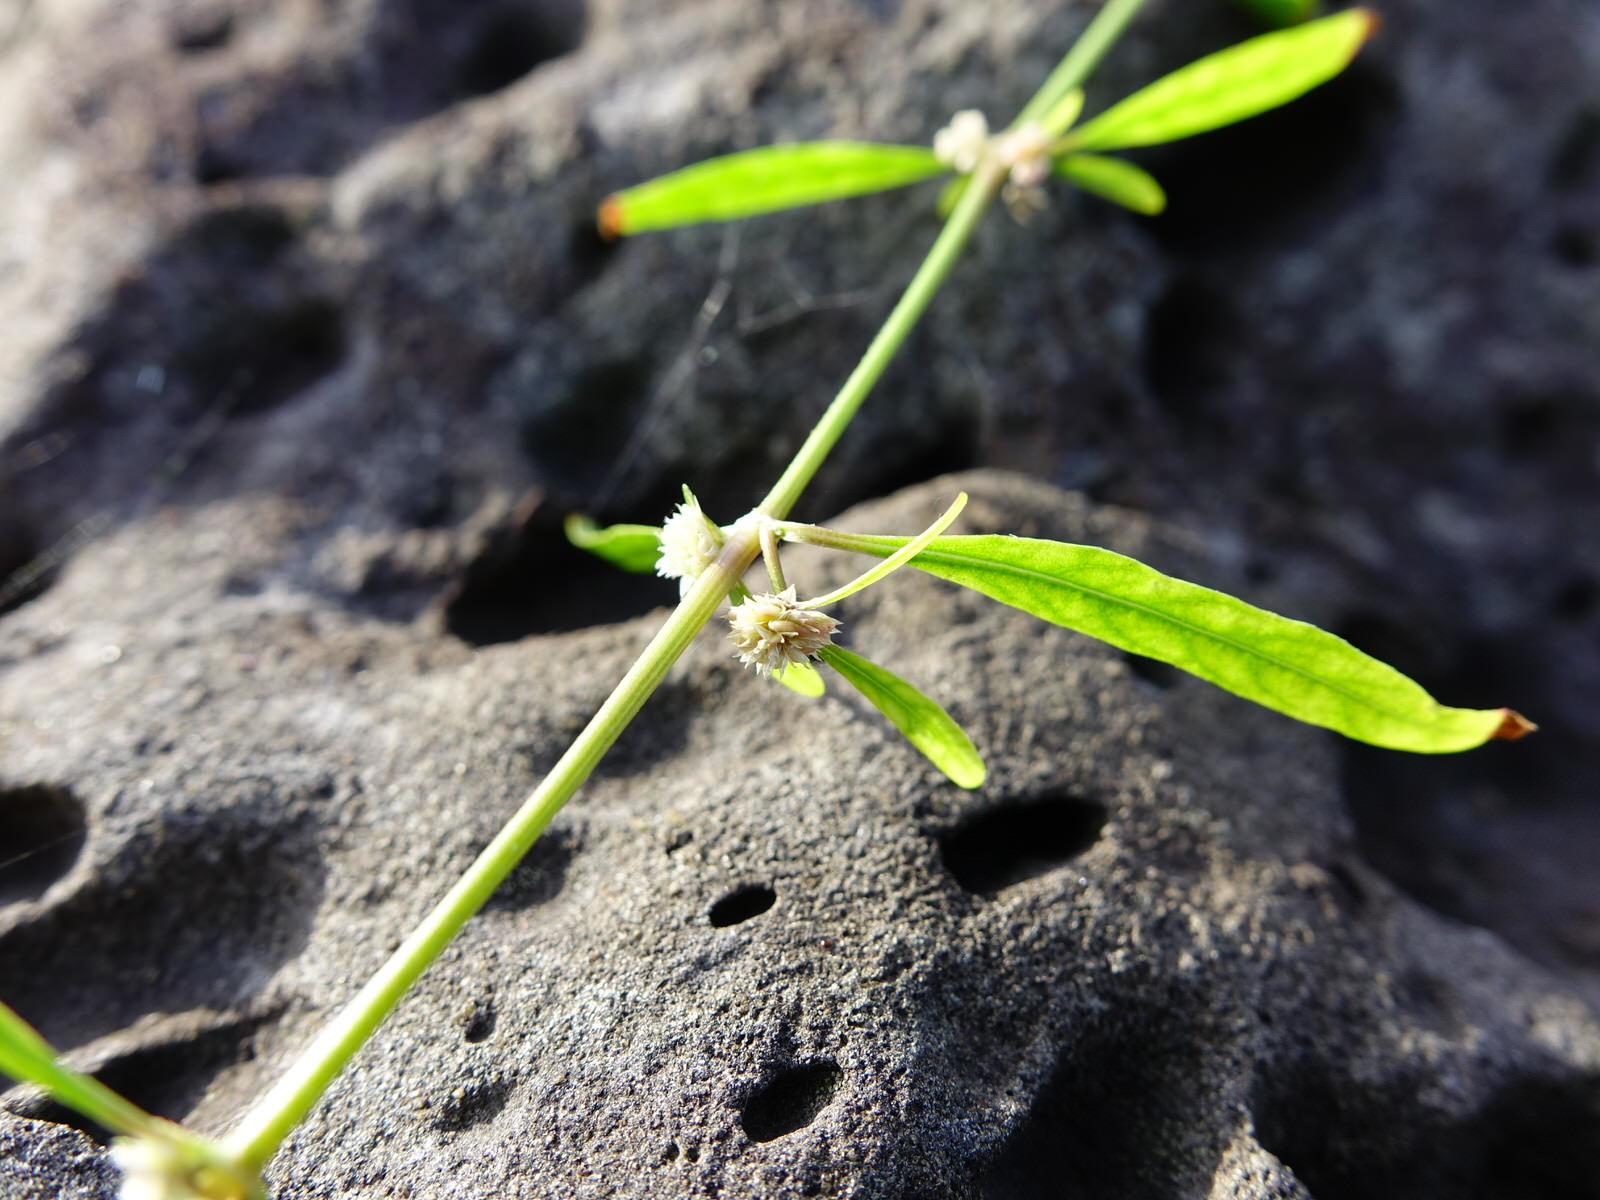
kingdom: Plantae
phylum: Tracheophyta
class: Magnoliopsida
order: Caryophyllales
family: Amaranthaceae
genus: Alternanthera
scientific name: Alternanthera nahui
